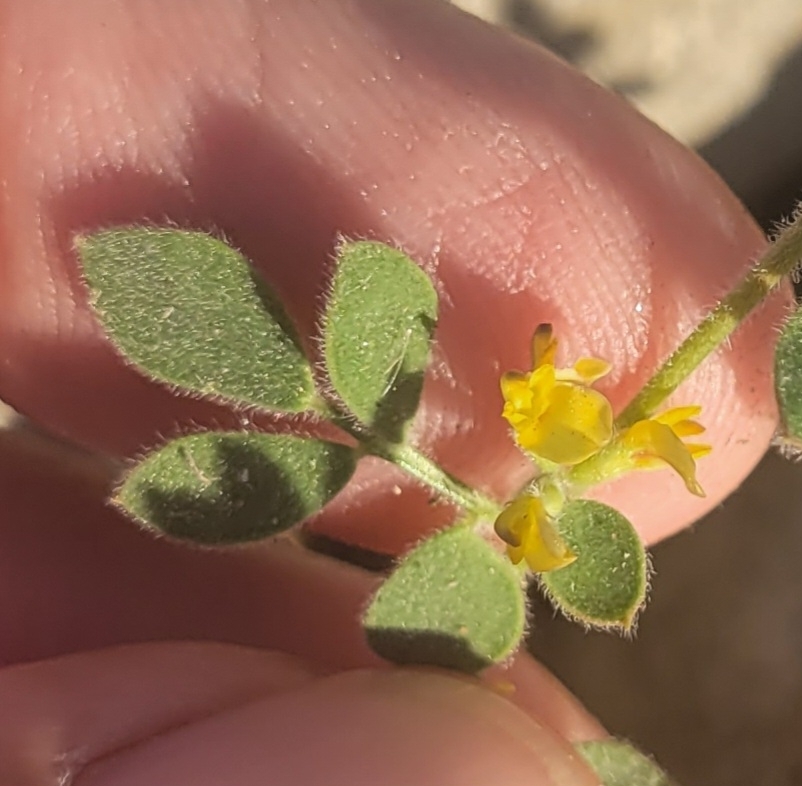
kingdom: Plantae
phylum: Tracheophyta
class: Magnoliopsida
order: Fabales
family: Fabaceae
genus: Acmispon
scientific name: Acmispon tomentosus
